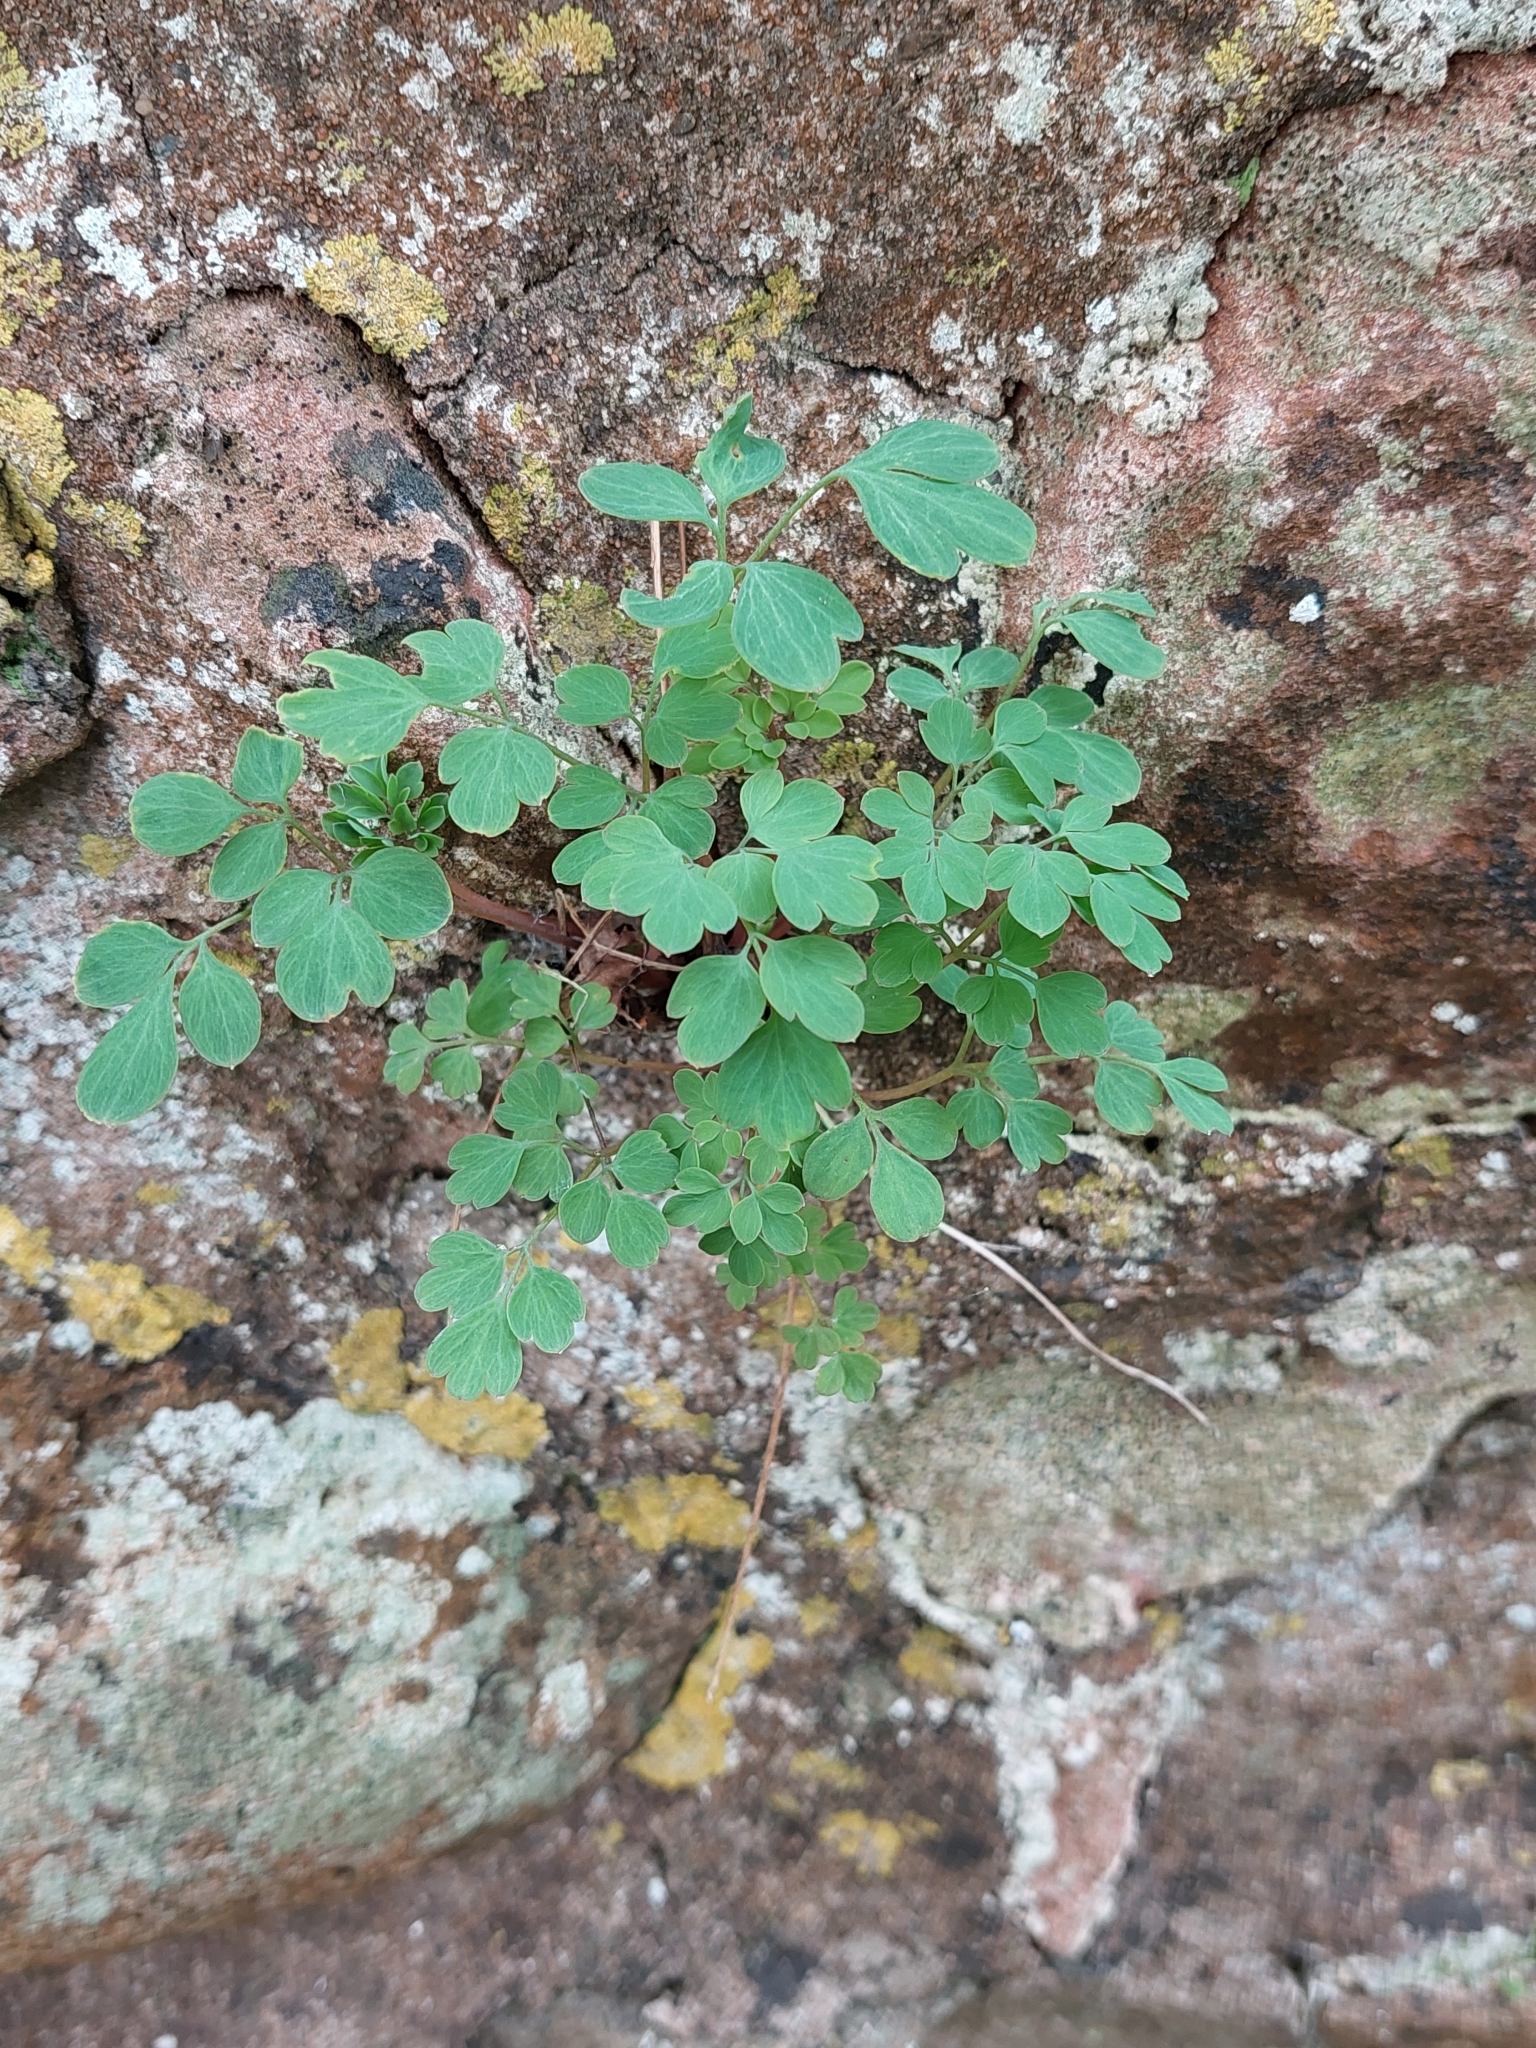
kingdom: Plantae
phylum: Tracheophyta
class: Magnoliopsida
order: Ranunculales
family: Papaveraceae
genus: Pseudofumaria
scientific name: Pseudofumaria lutea
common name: Yellow corydalis
